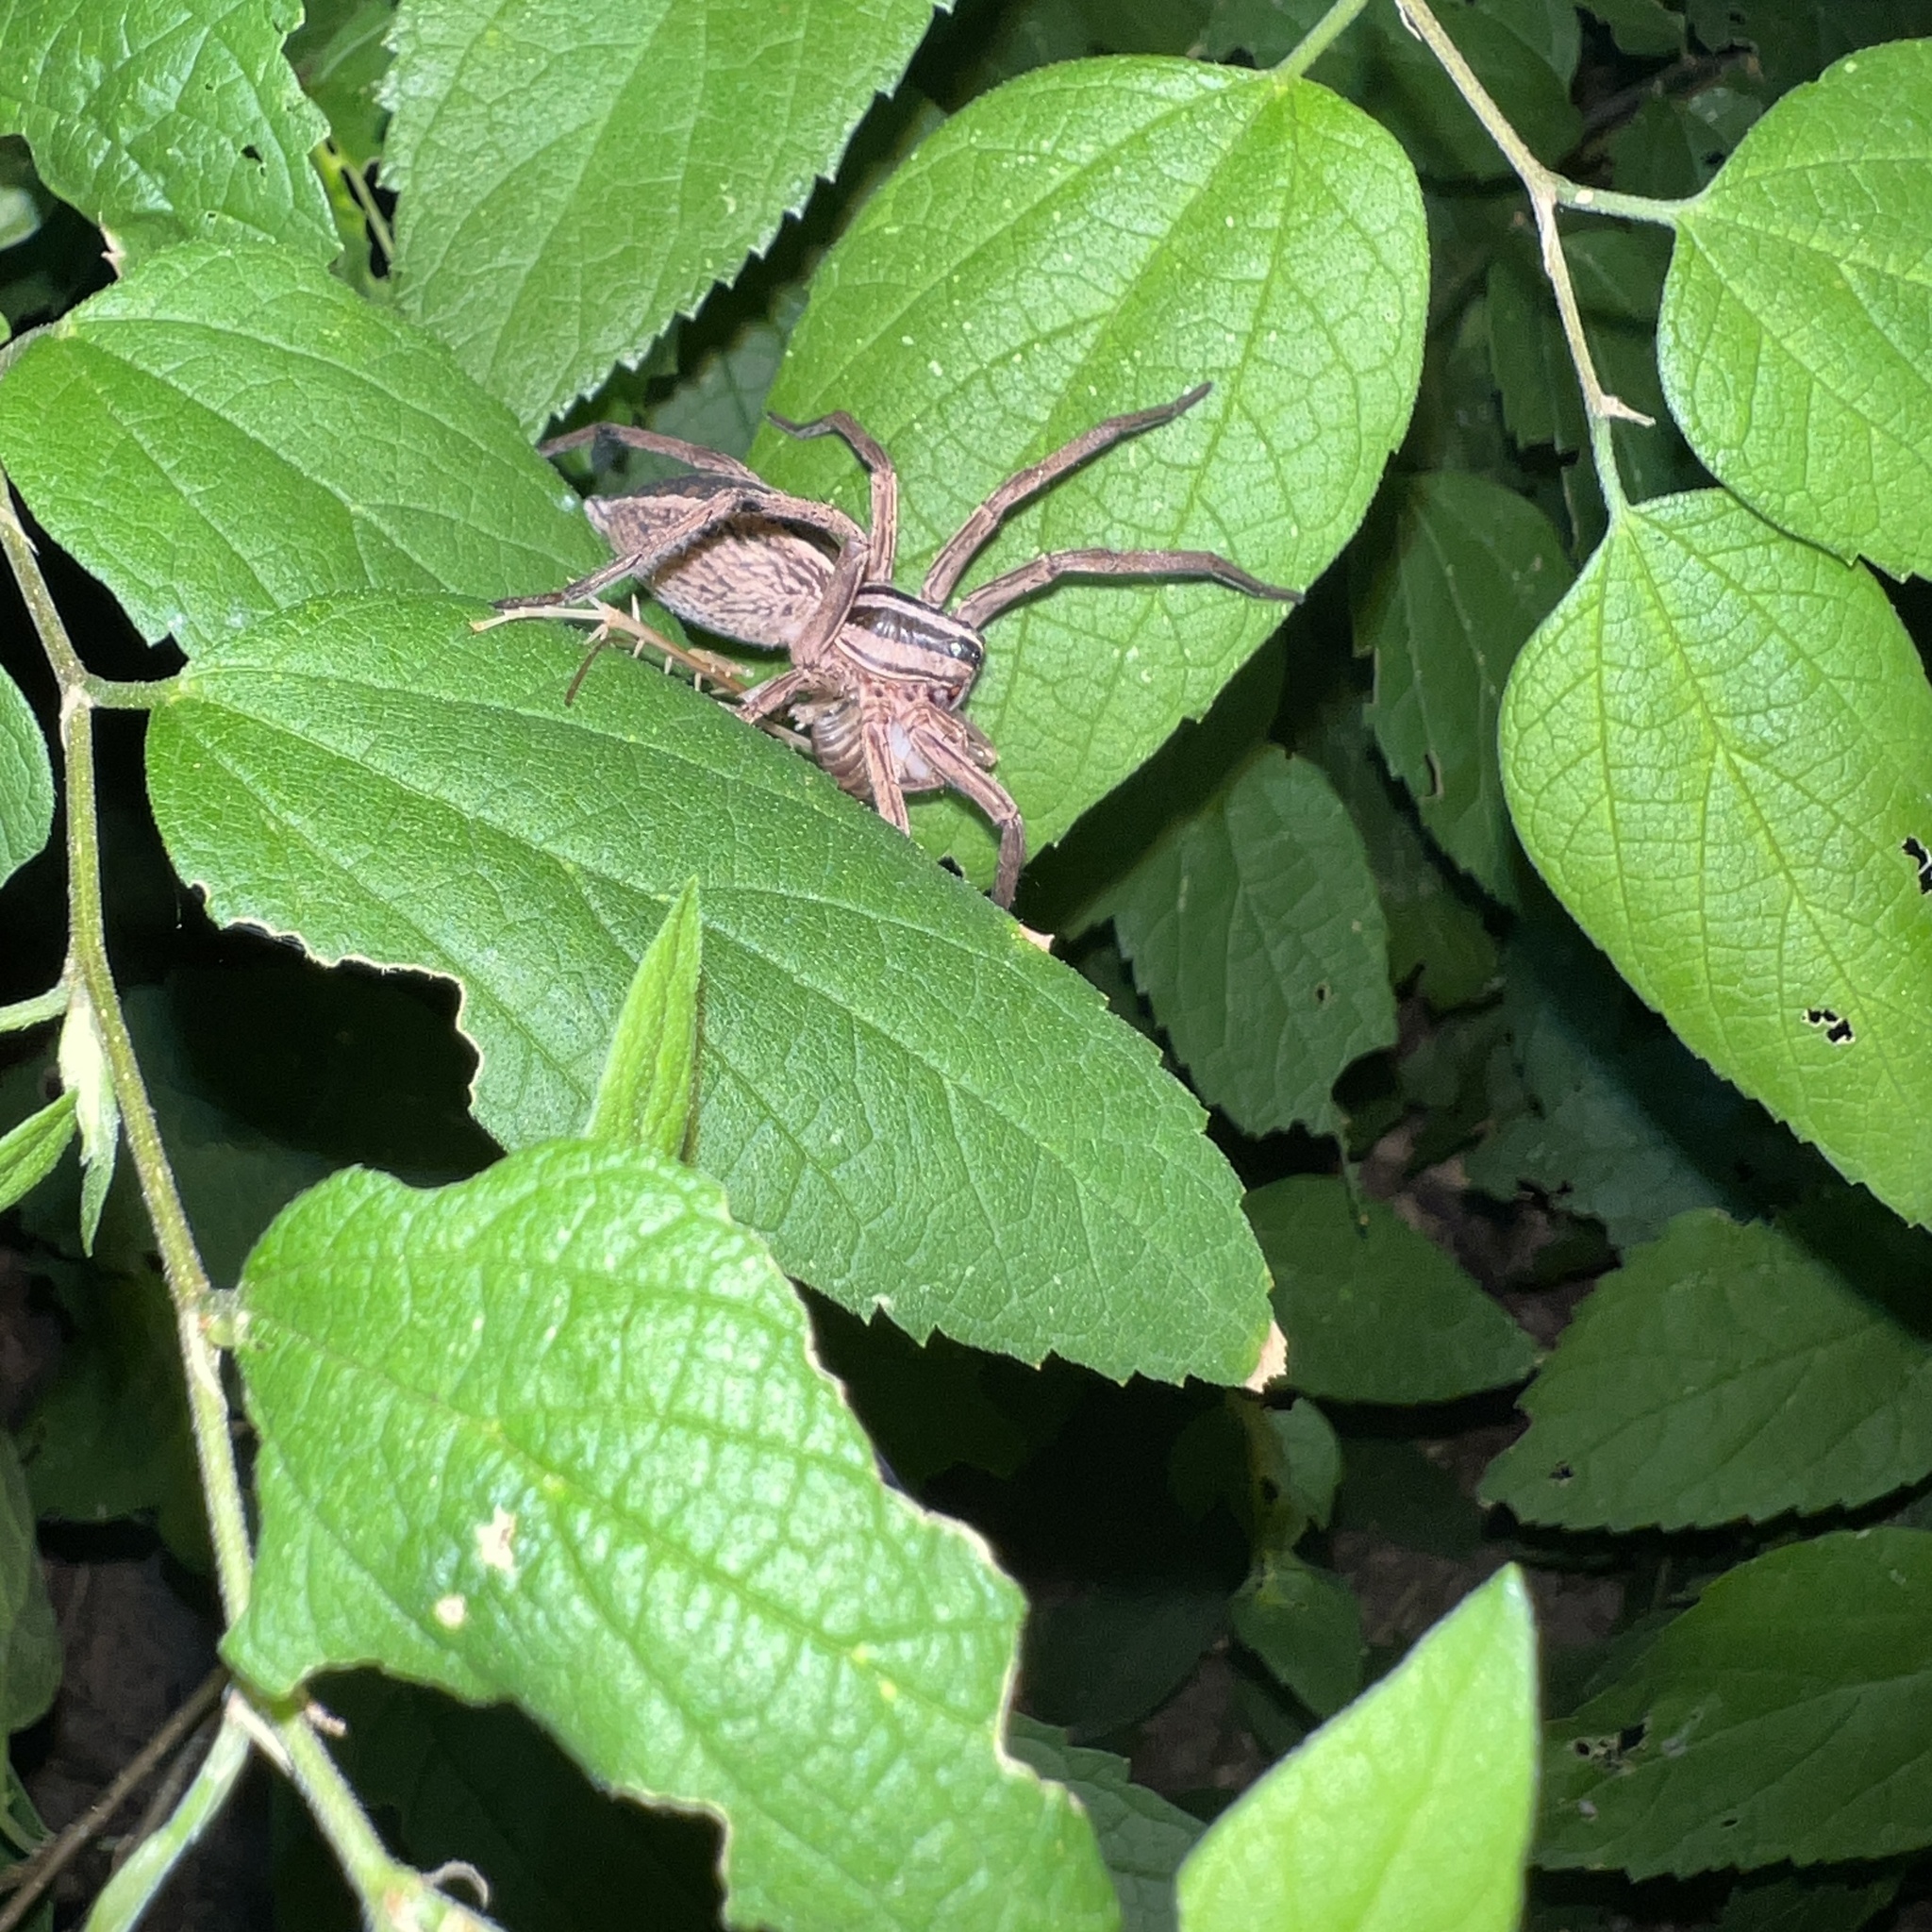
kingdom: Animalia
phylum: Arthropoda
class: Arachnida
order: Araneae
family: Lycosidae
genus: Rabidosa
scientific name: Rabidosa rabida
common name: Rabid wolf spider
